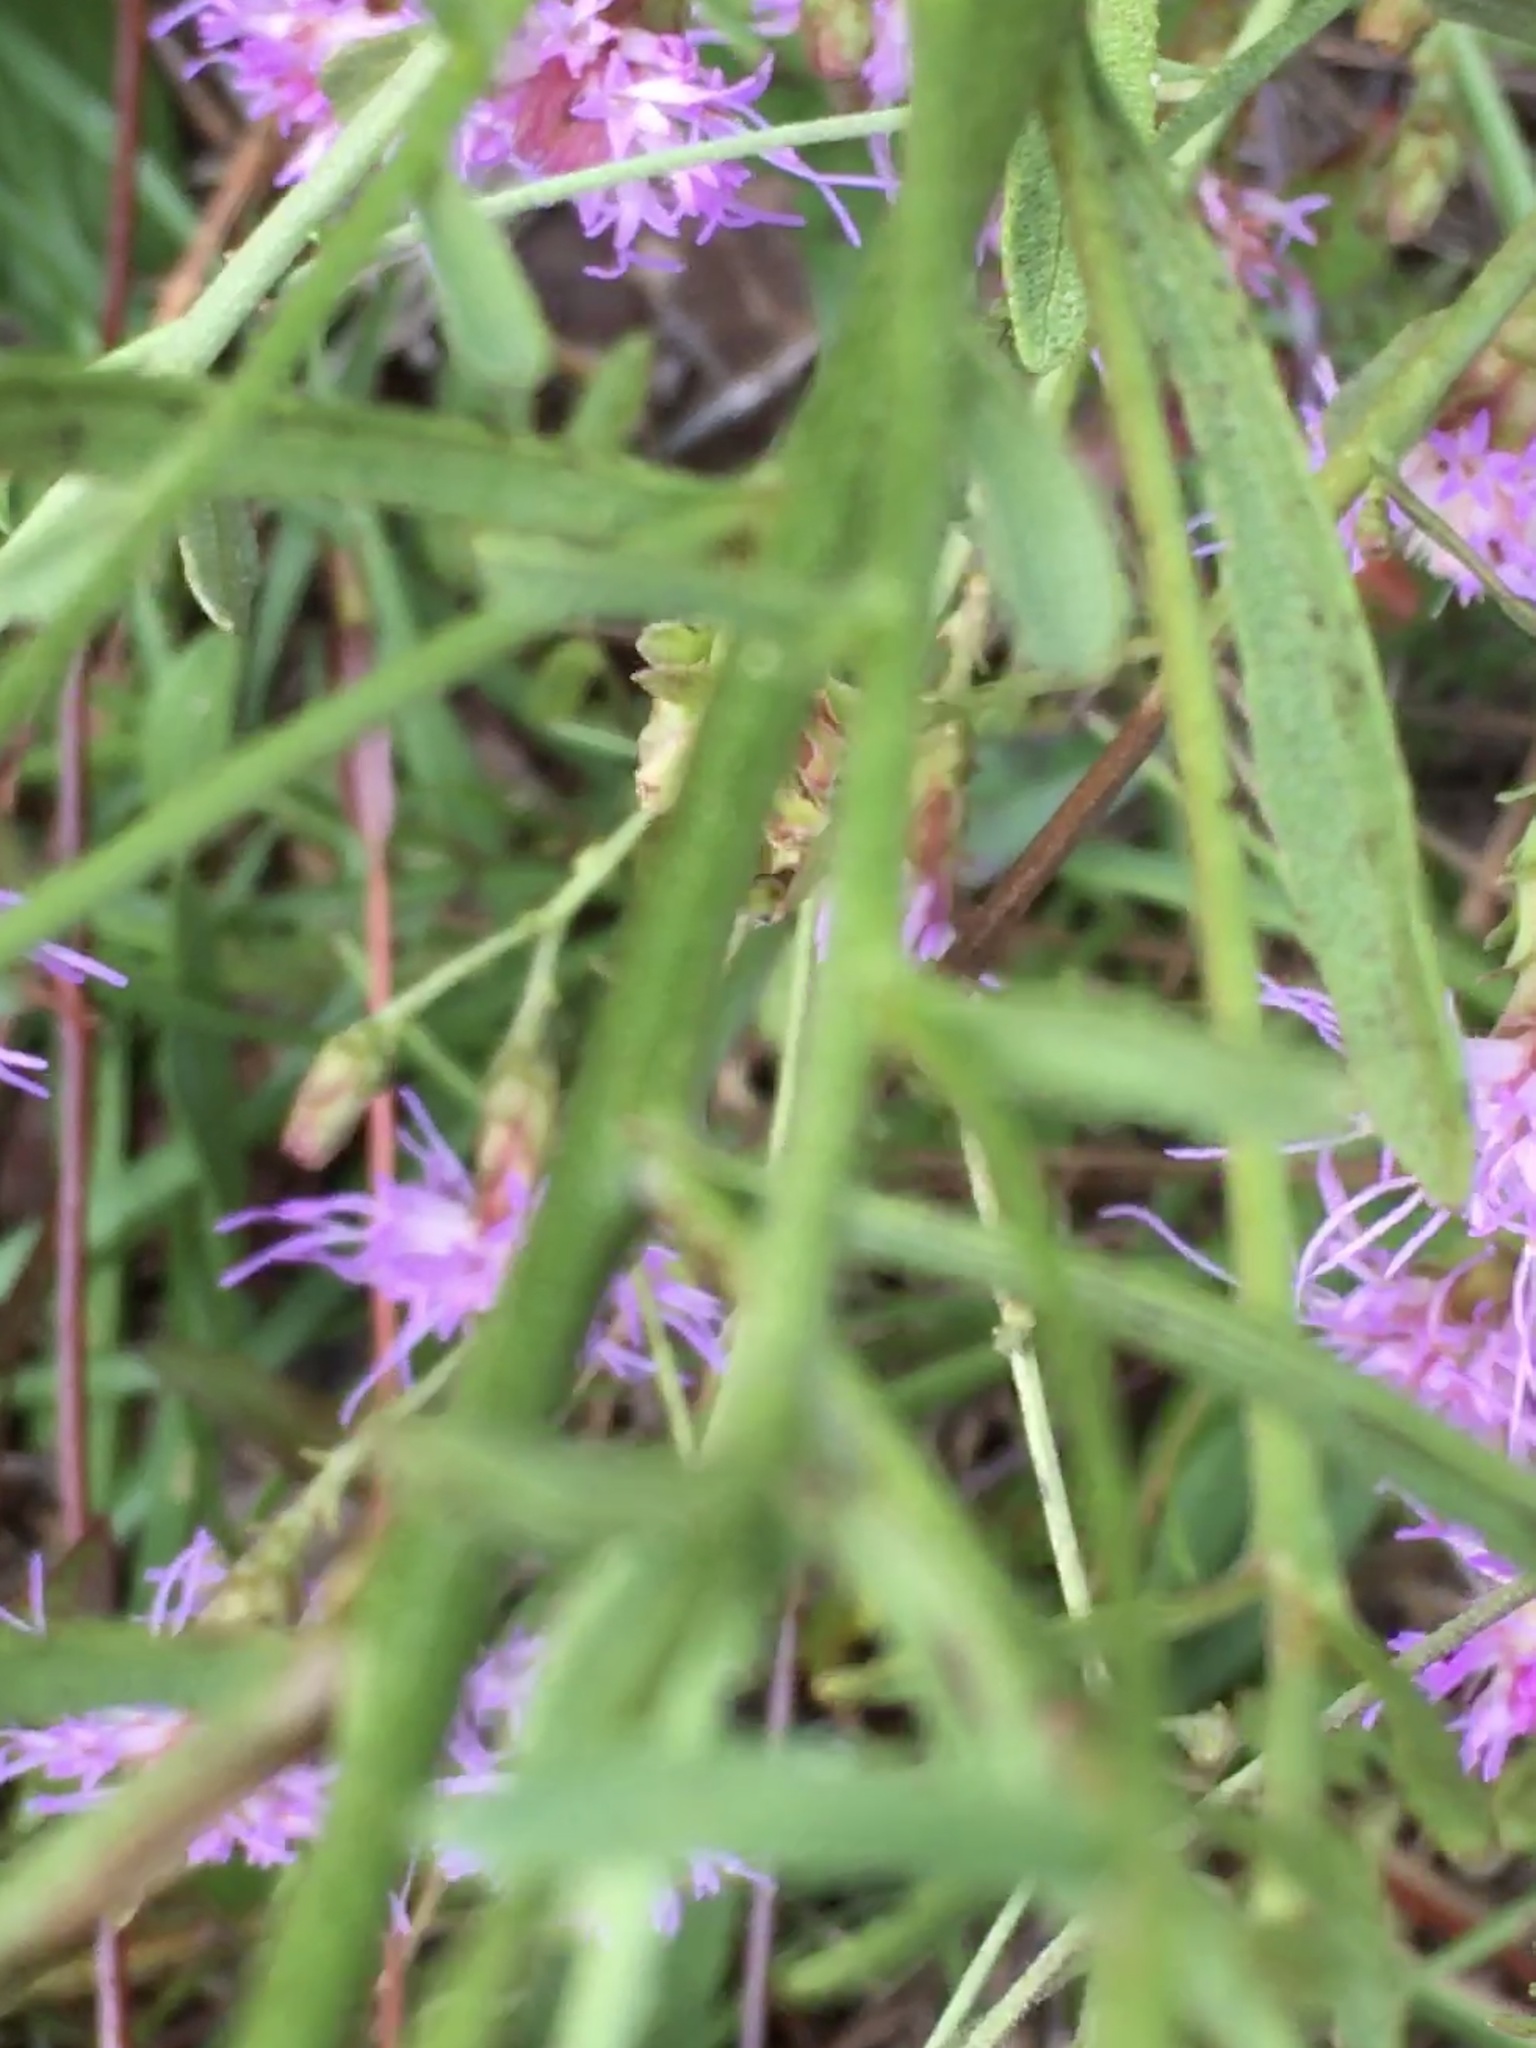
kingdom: Plantae
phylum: Tracheophyta
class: Magnoliopsida
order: Asterales
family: Asteraceae
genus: Carphephorus
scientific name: Carphephorus bellidifolius
